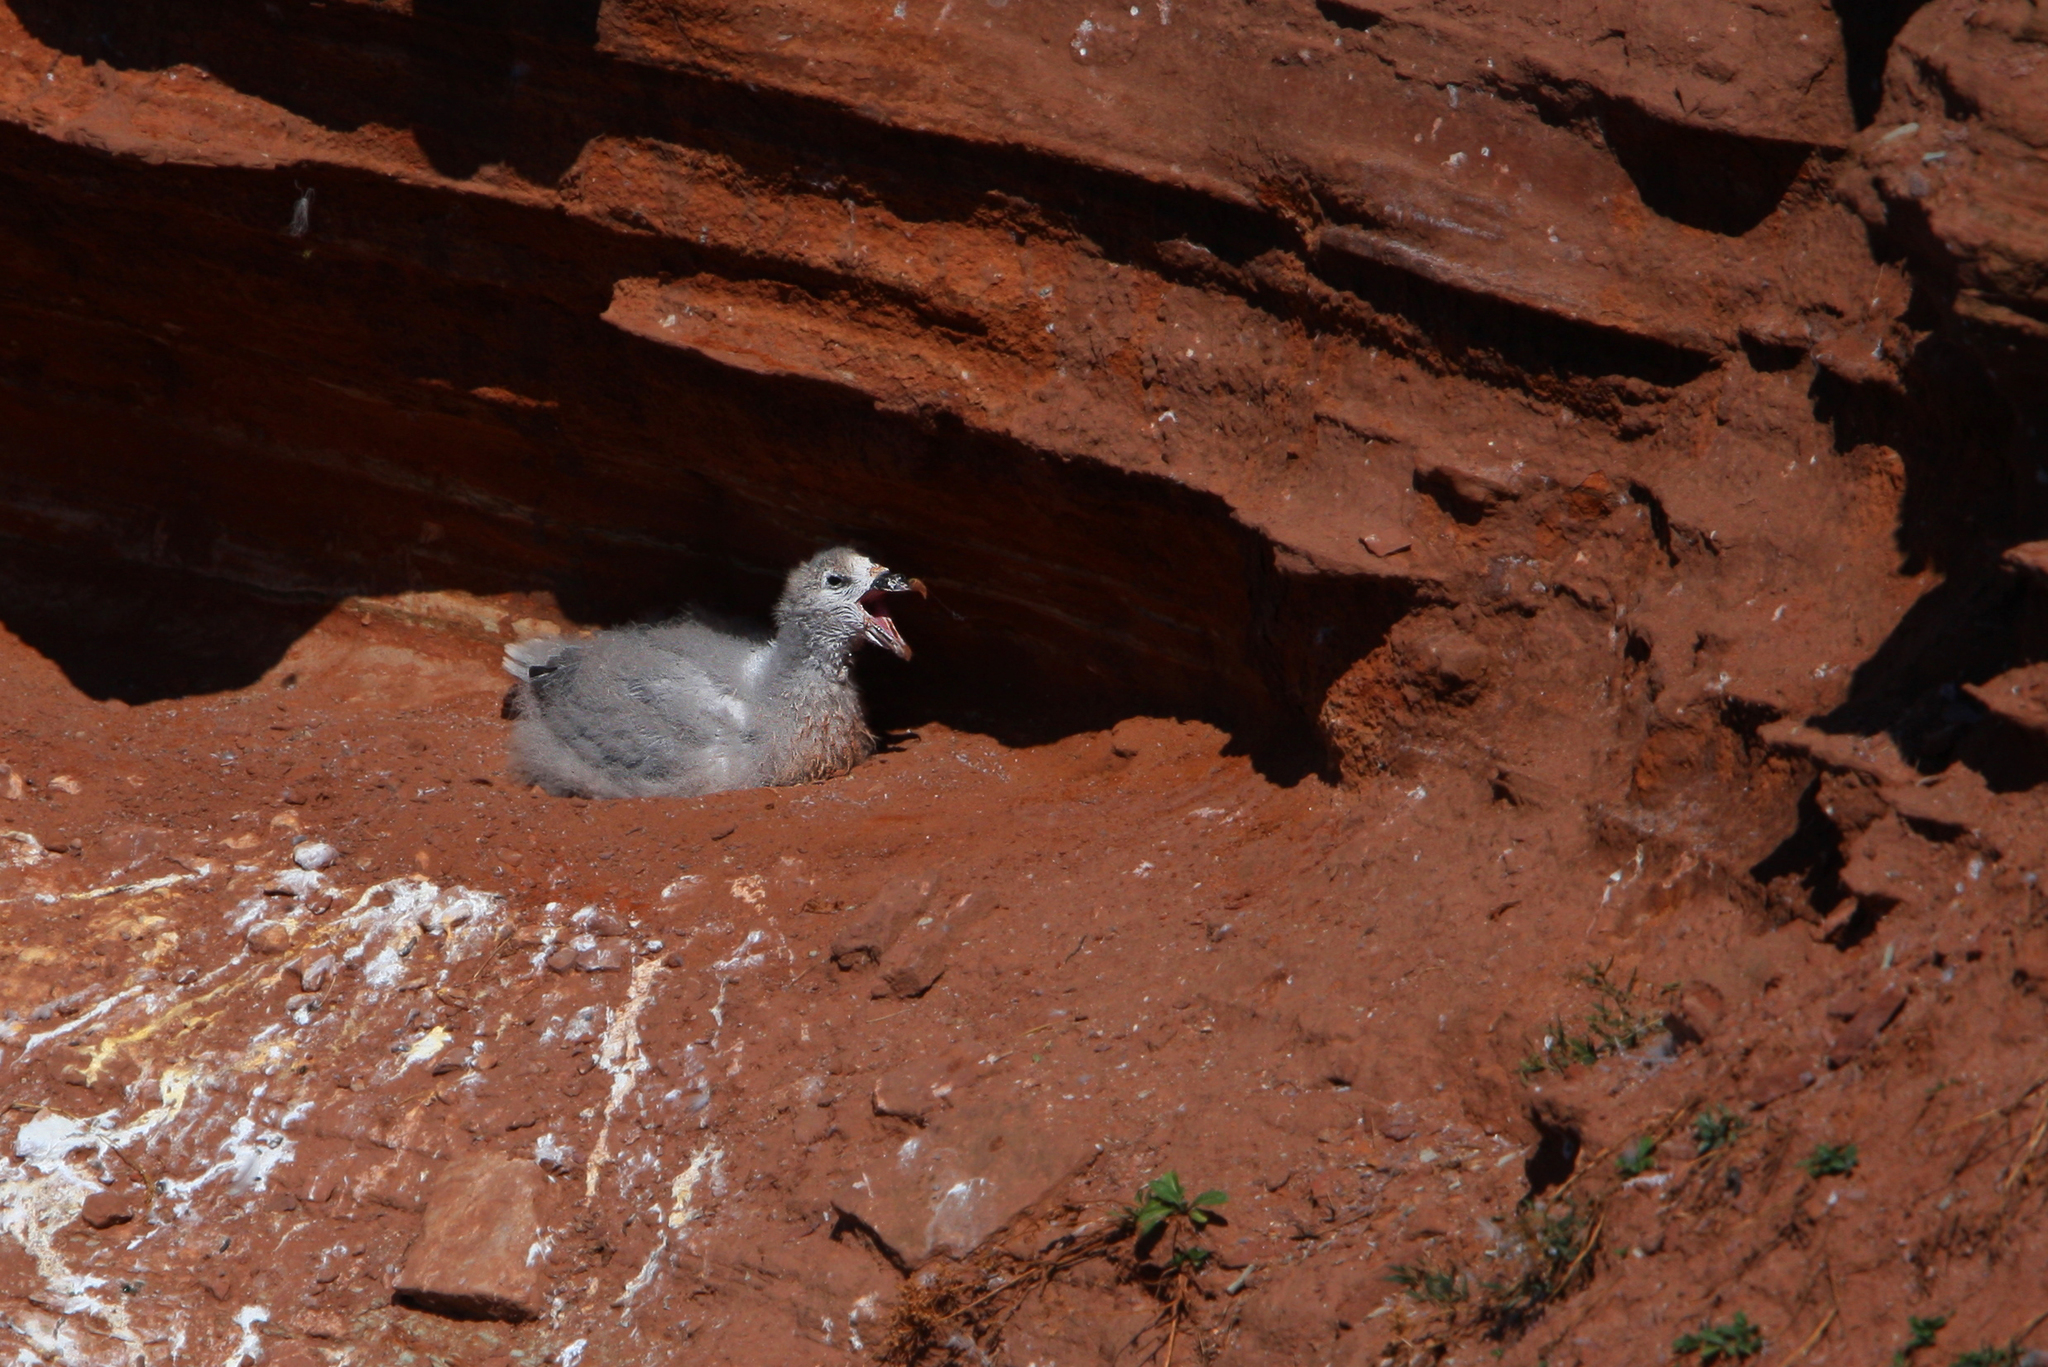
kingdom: Animalia
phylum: Chordata
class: Aves
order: Procellariiformes
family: Procellariidae
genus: Fulmarus
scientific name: Fulmarus glacialis
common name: Northern fulmar
